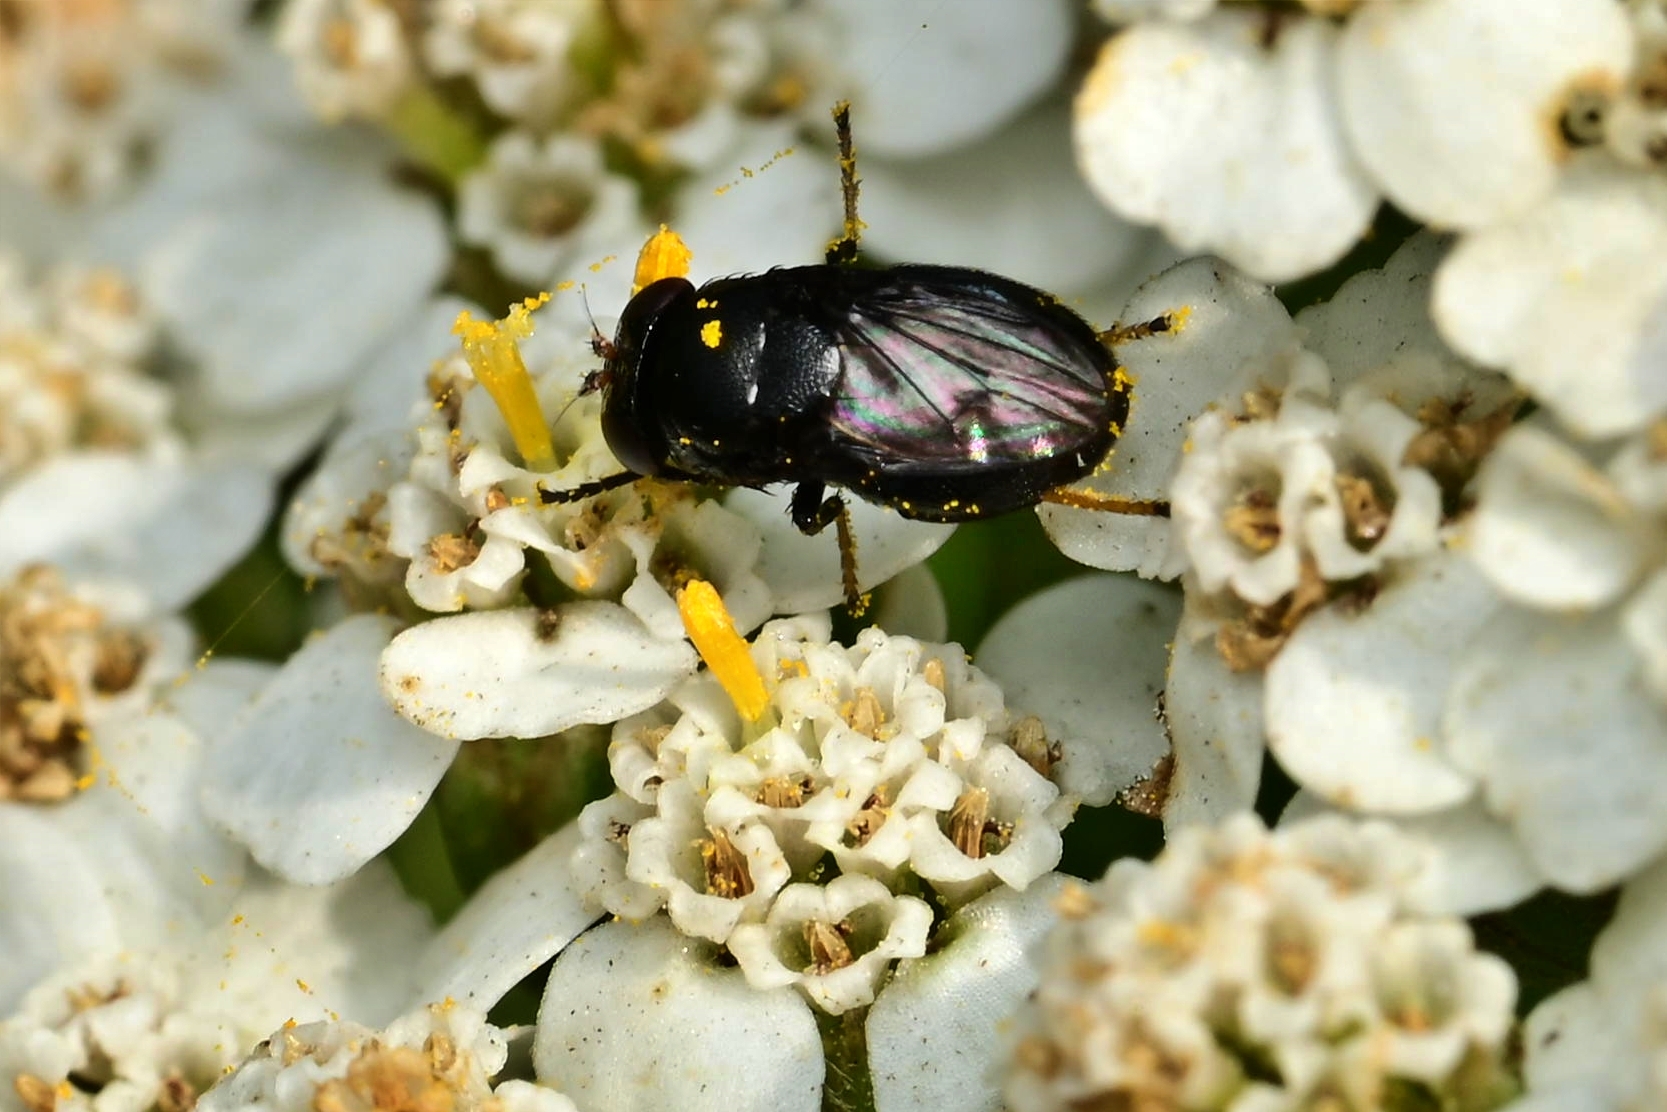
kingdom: Animalia
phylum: Arthropoda
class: Insecta
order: Diptera
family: Ephydridae
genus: Discomyza
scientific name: Discomyza incurva
